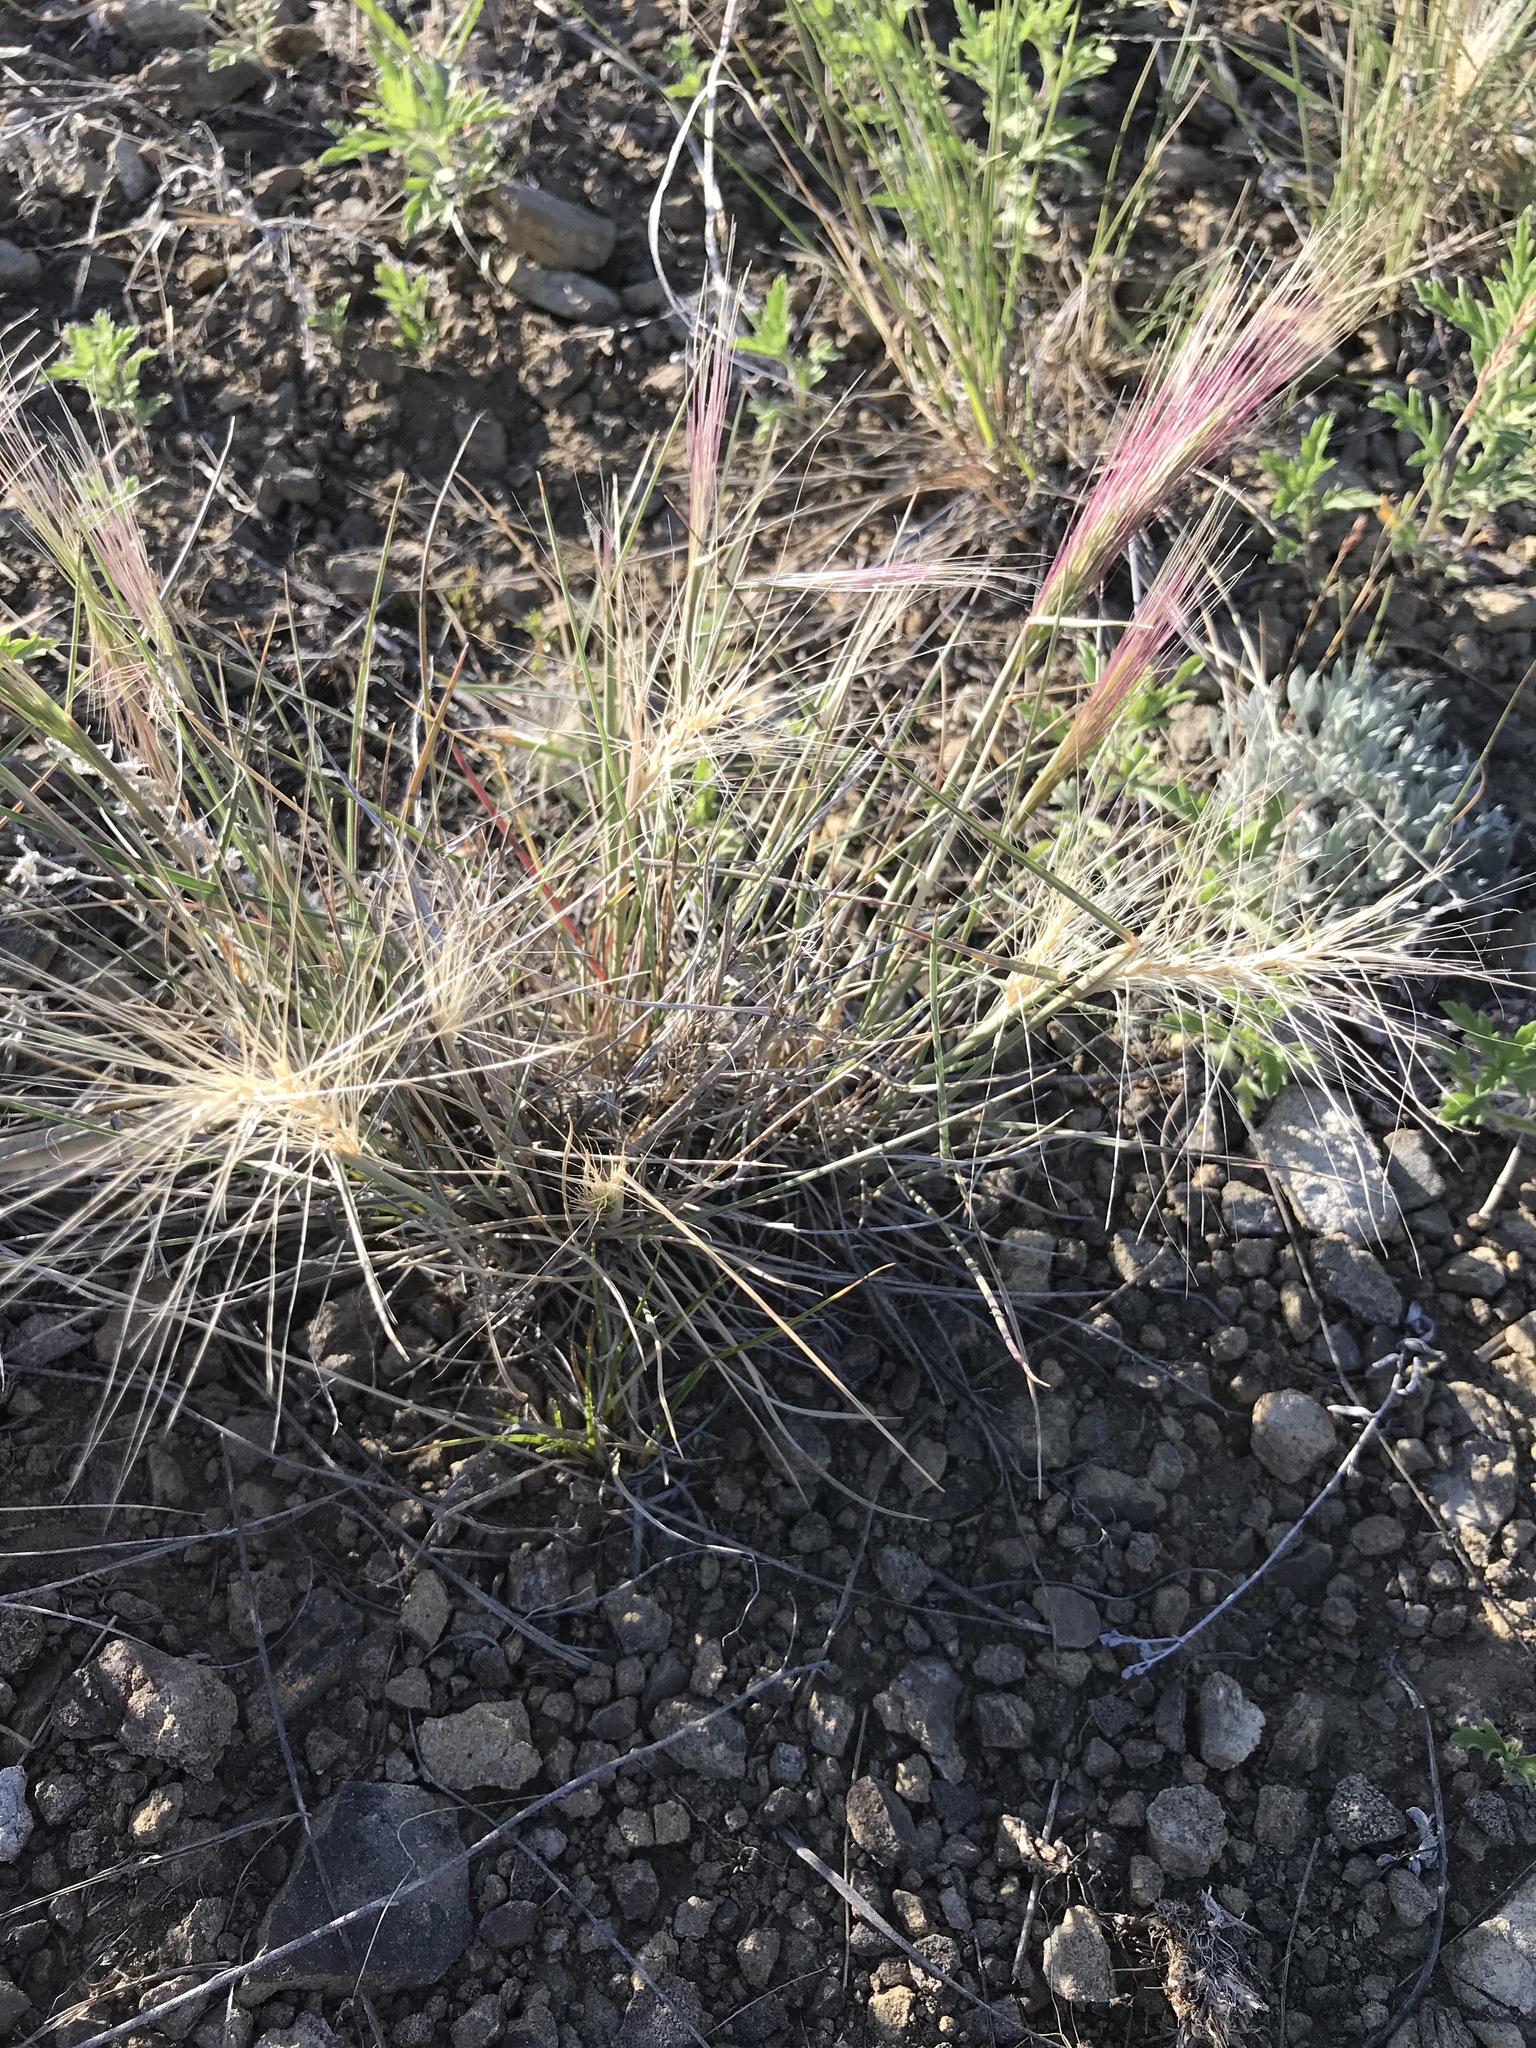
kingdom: Plantae
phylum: Tracheophyta
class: Liliopsida
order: Poales
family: Poaceae
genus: Elymus
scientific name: Elymus elymoides
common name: Bottlebrush squirreltail
